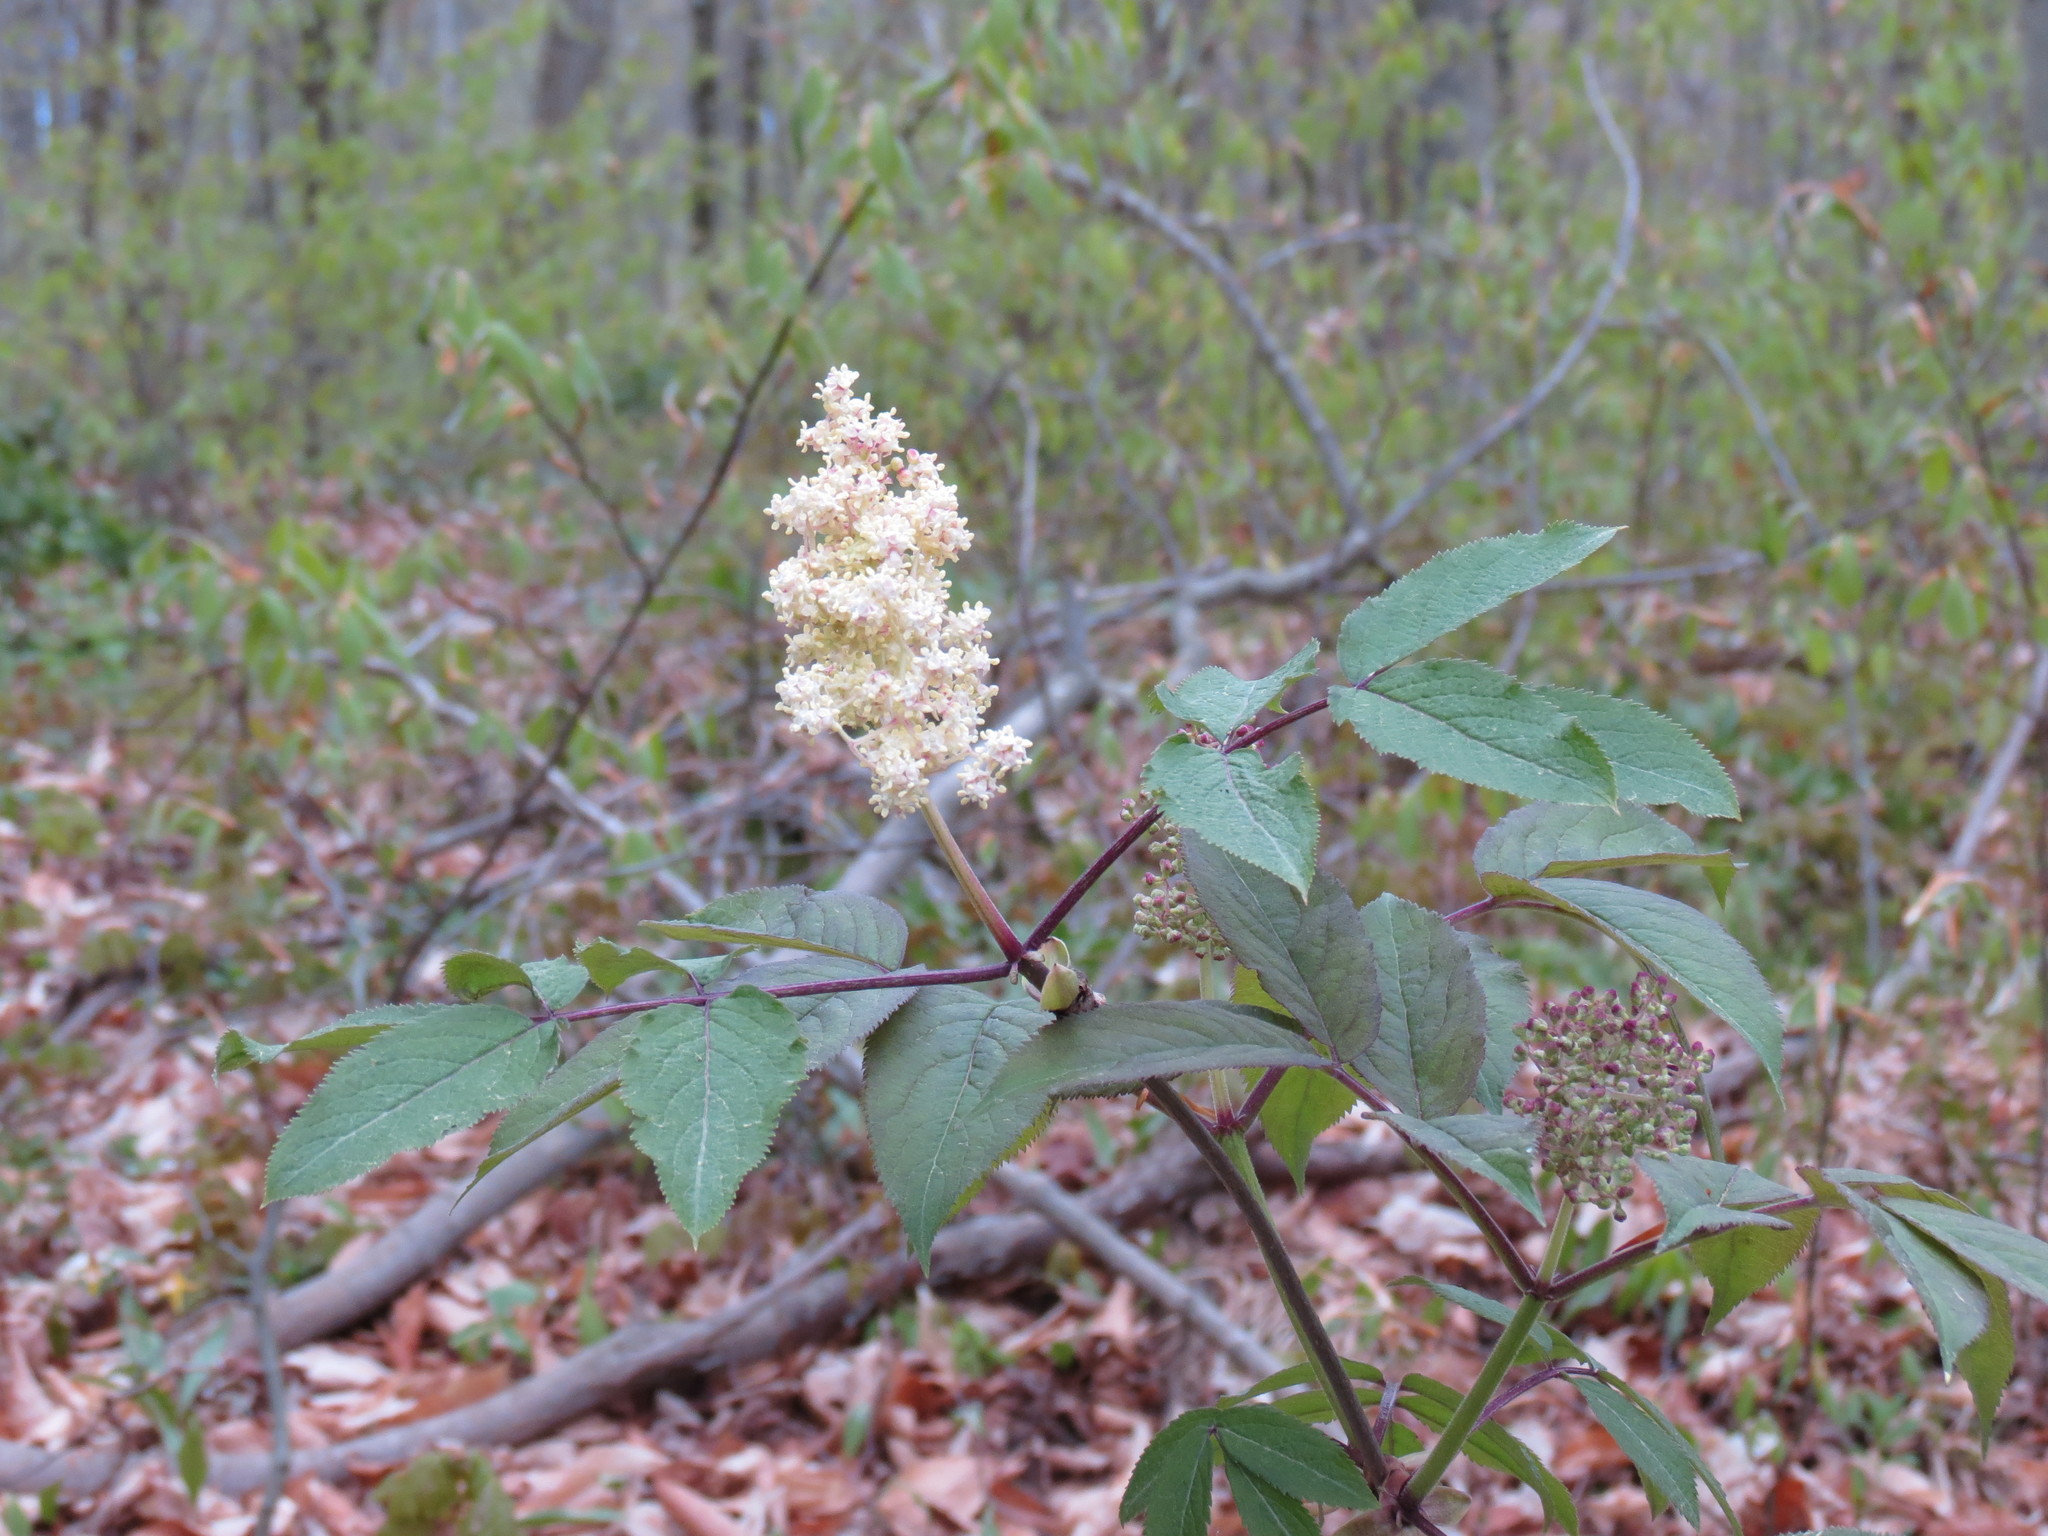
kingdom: Plantae
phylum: Tracheophyta
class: Magnoliopsida
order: Dipsacales
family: Viburnaceae
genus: Sambucus
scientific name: Sambucus racemosa
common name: Red-berried elder
